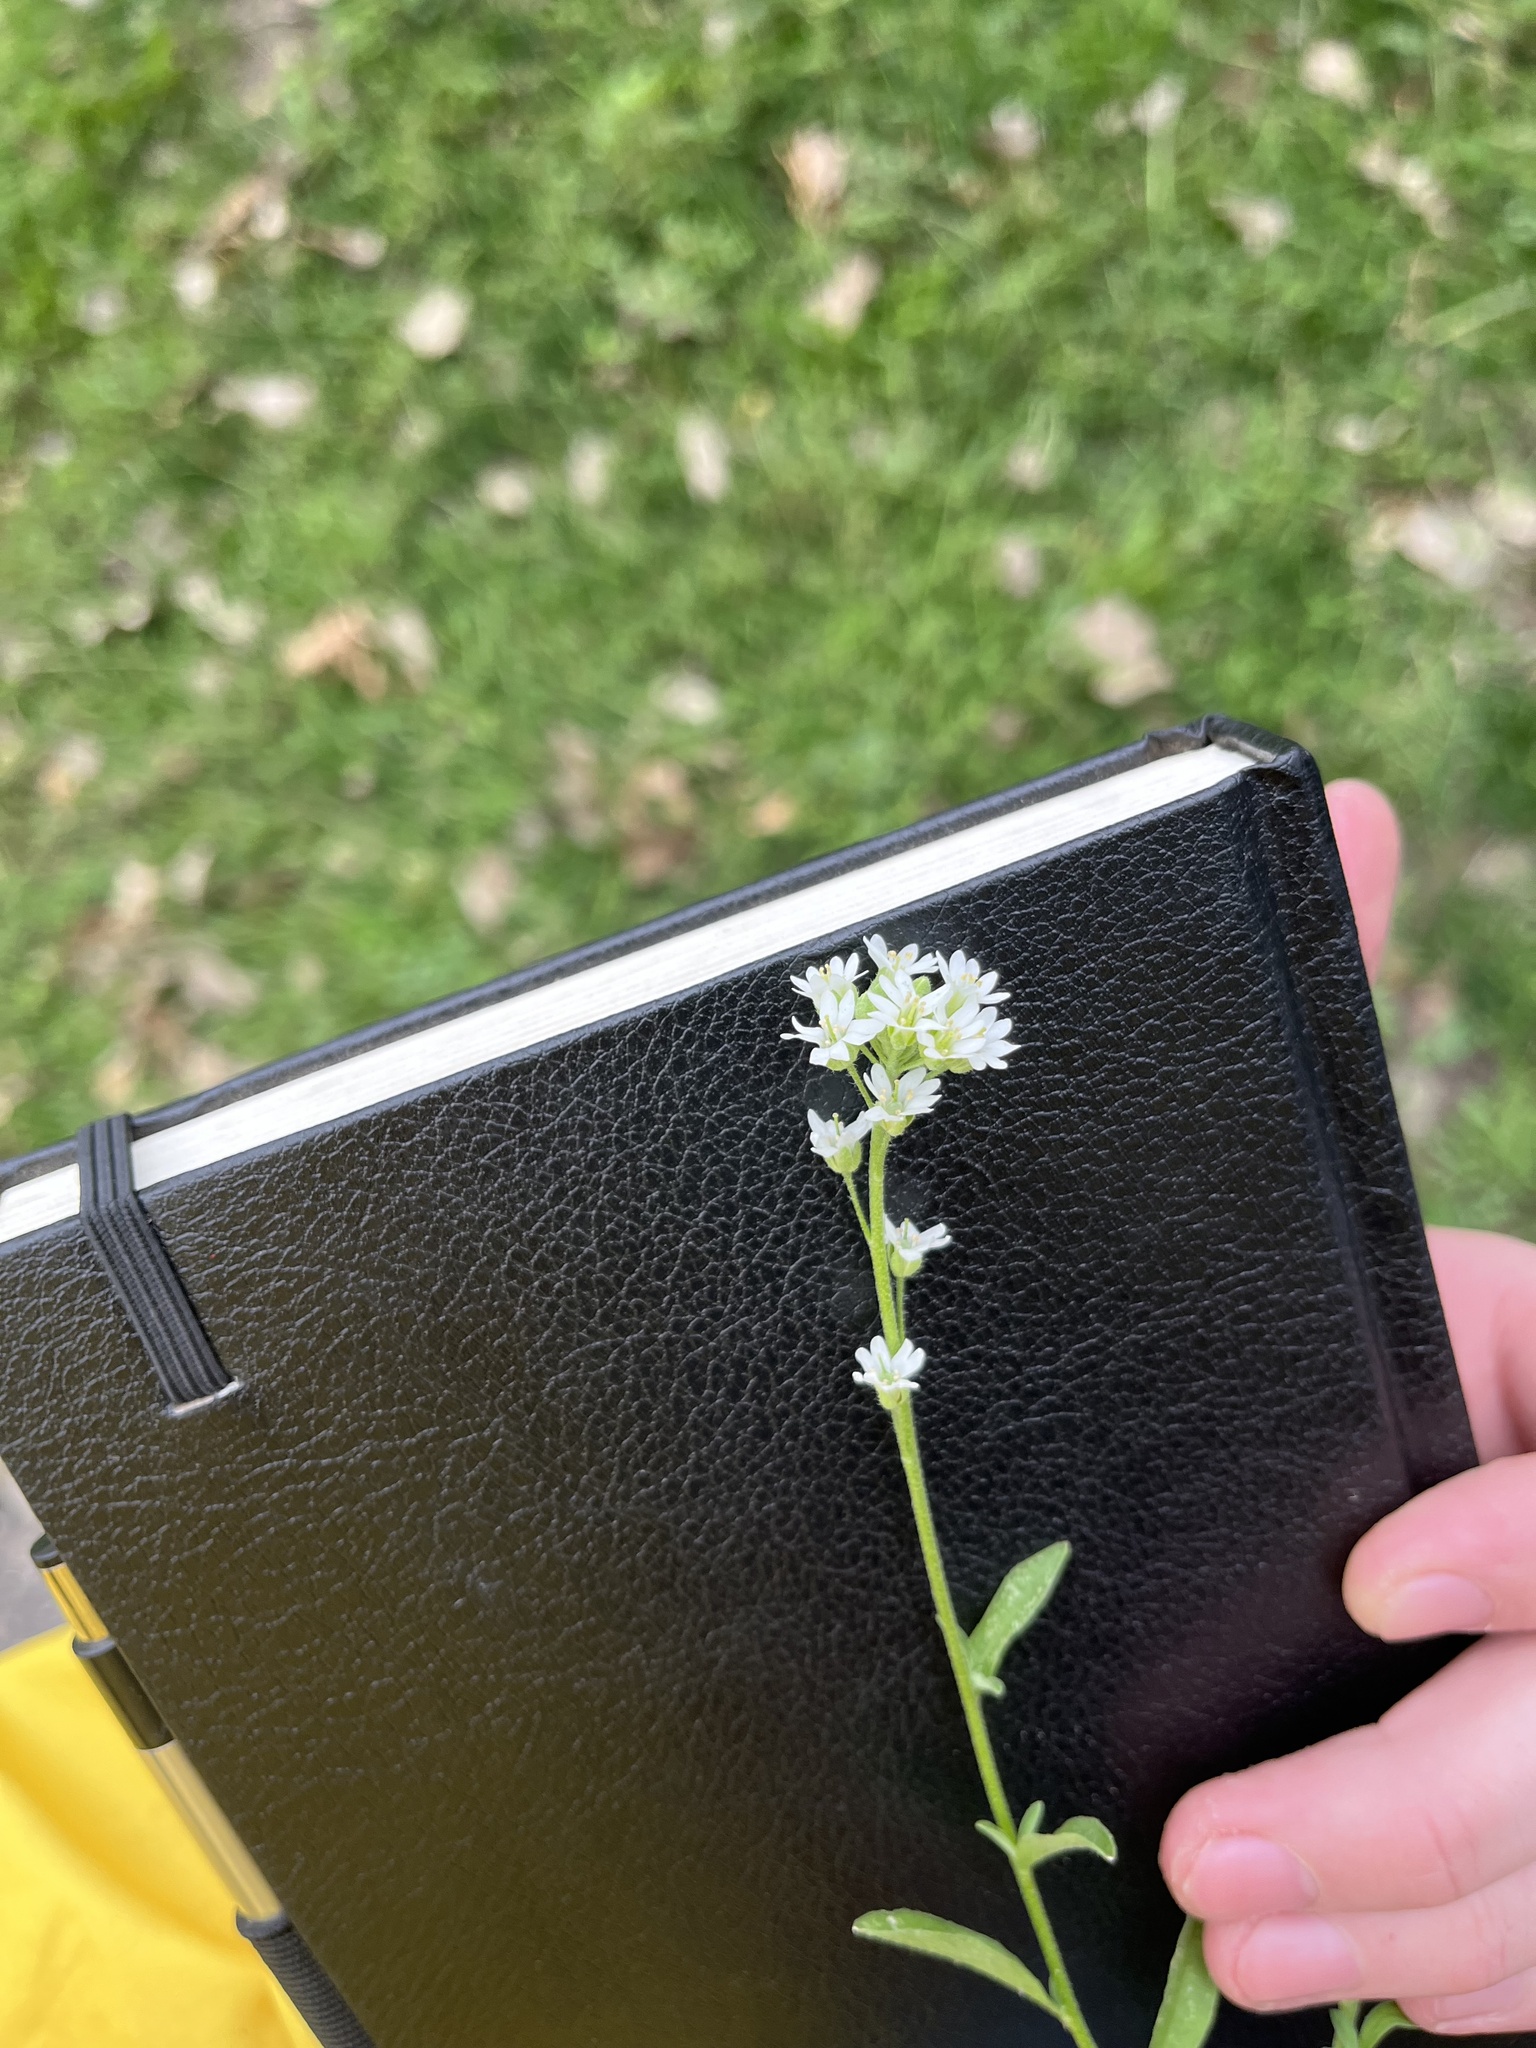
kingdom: Plantae
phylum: Tracheophyta
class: Magnoliopsida
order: Brassicales
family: Brassicaceae
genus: Berteroa
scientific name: Berteroa incana
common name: Hoary alison
